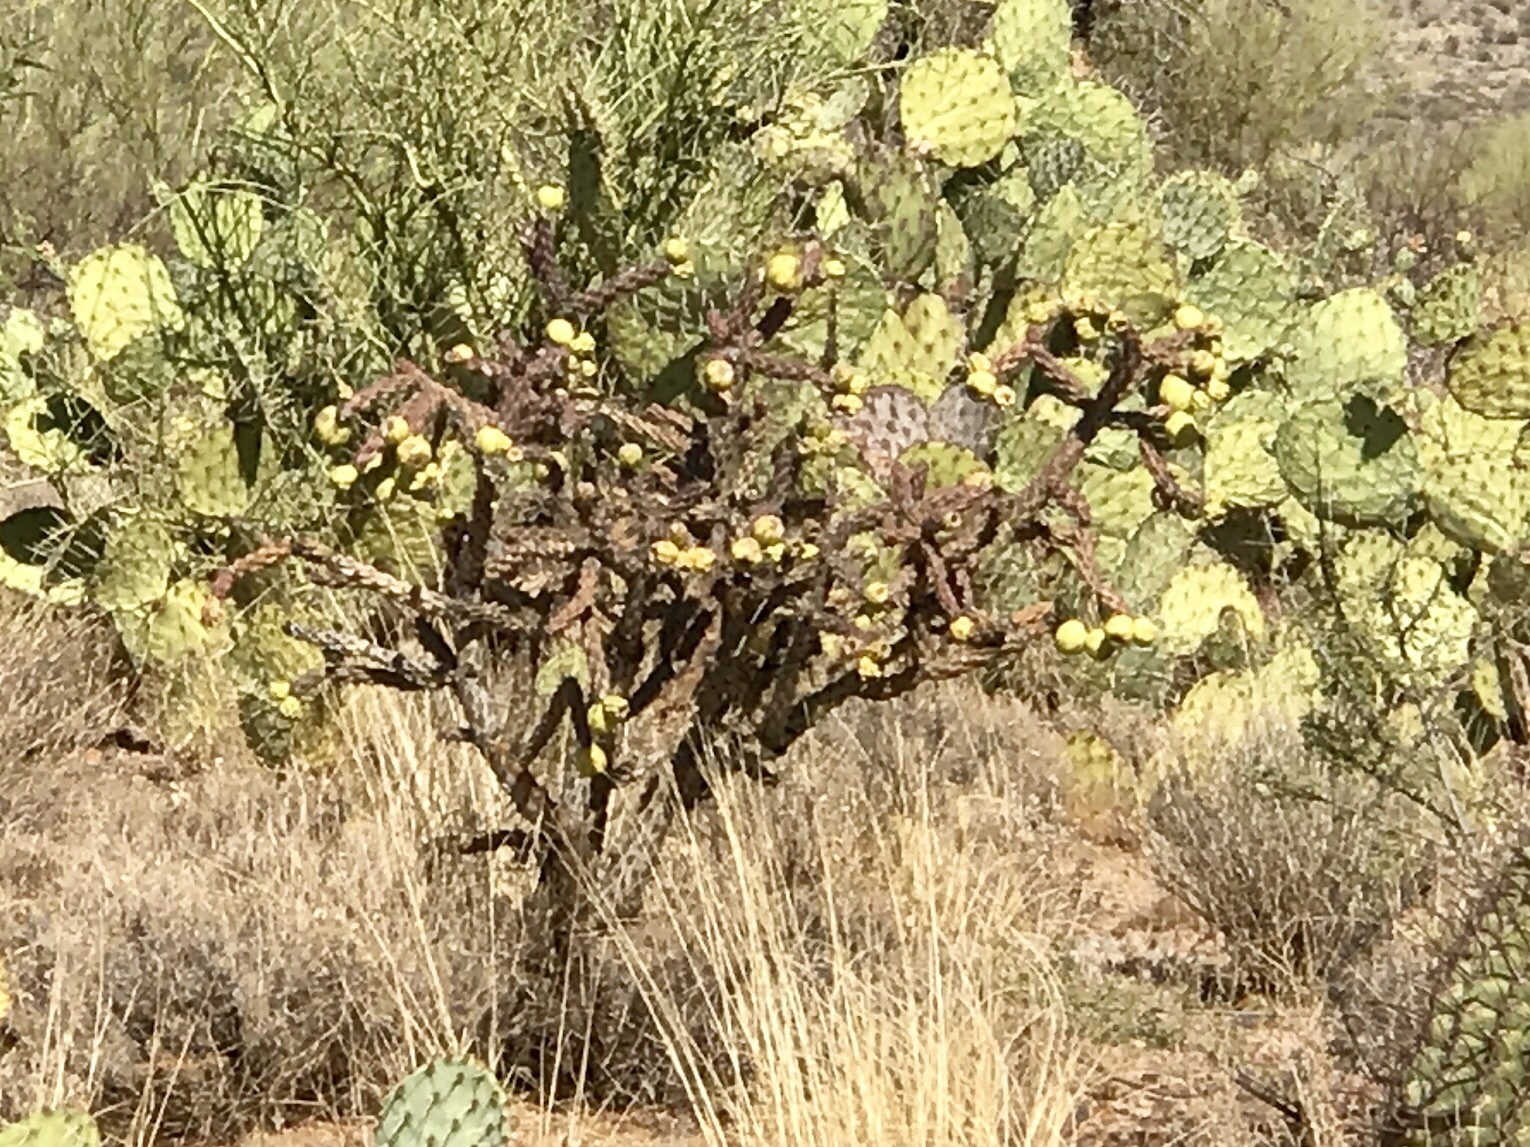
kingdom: Plantae
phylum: Tracheophyta
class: Magnoliopsida
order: Caryophyllales
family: Cactaceae
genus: Cylindropuntia
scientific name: Cylindropuntia thurberi
